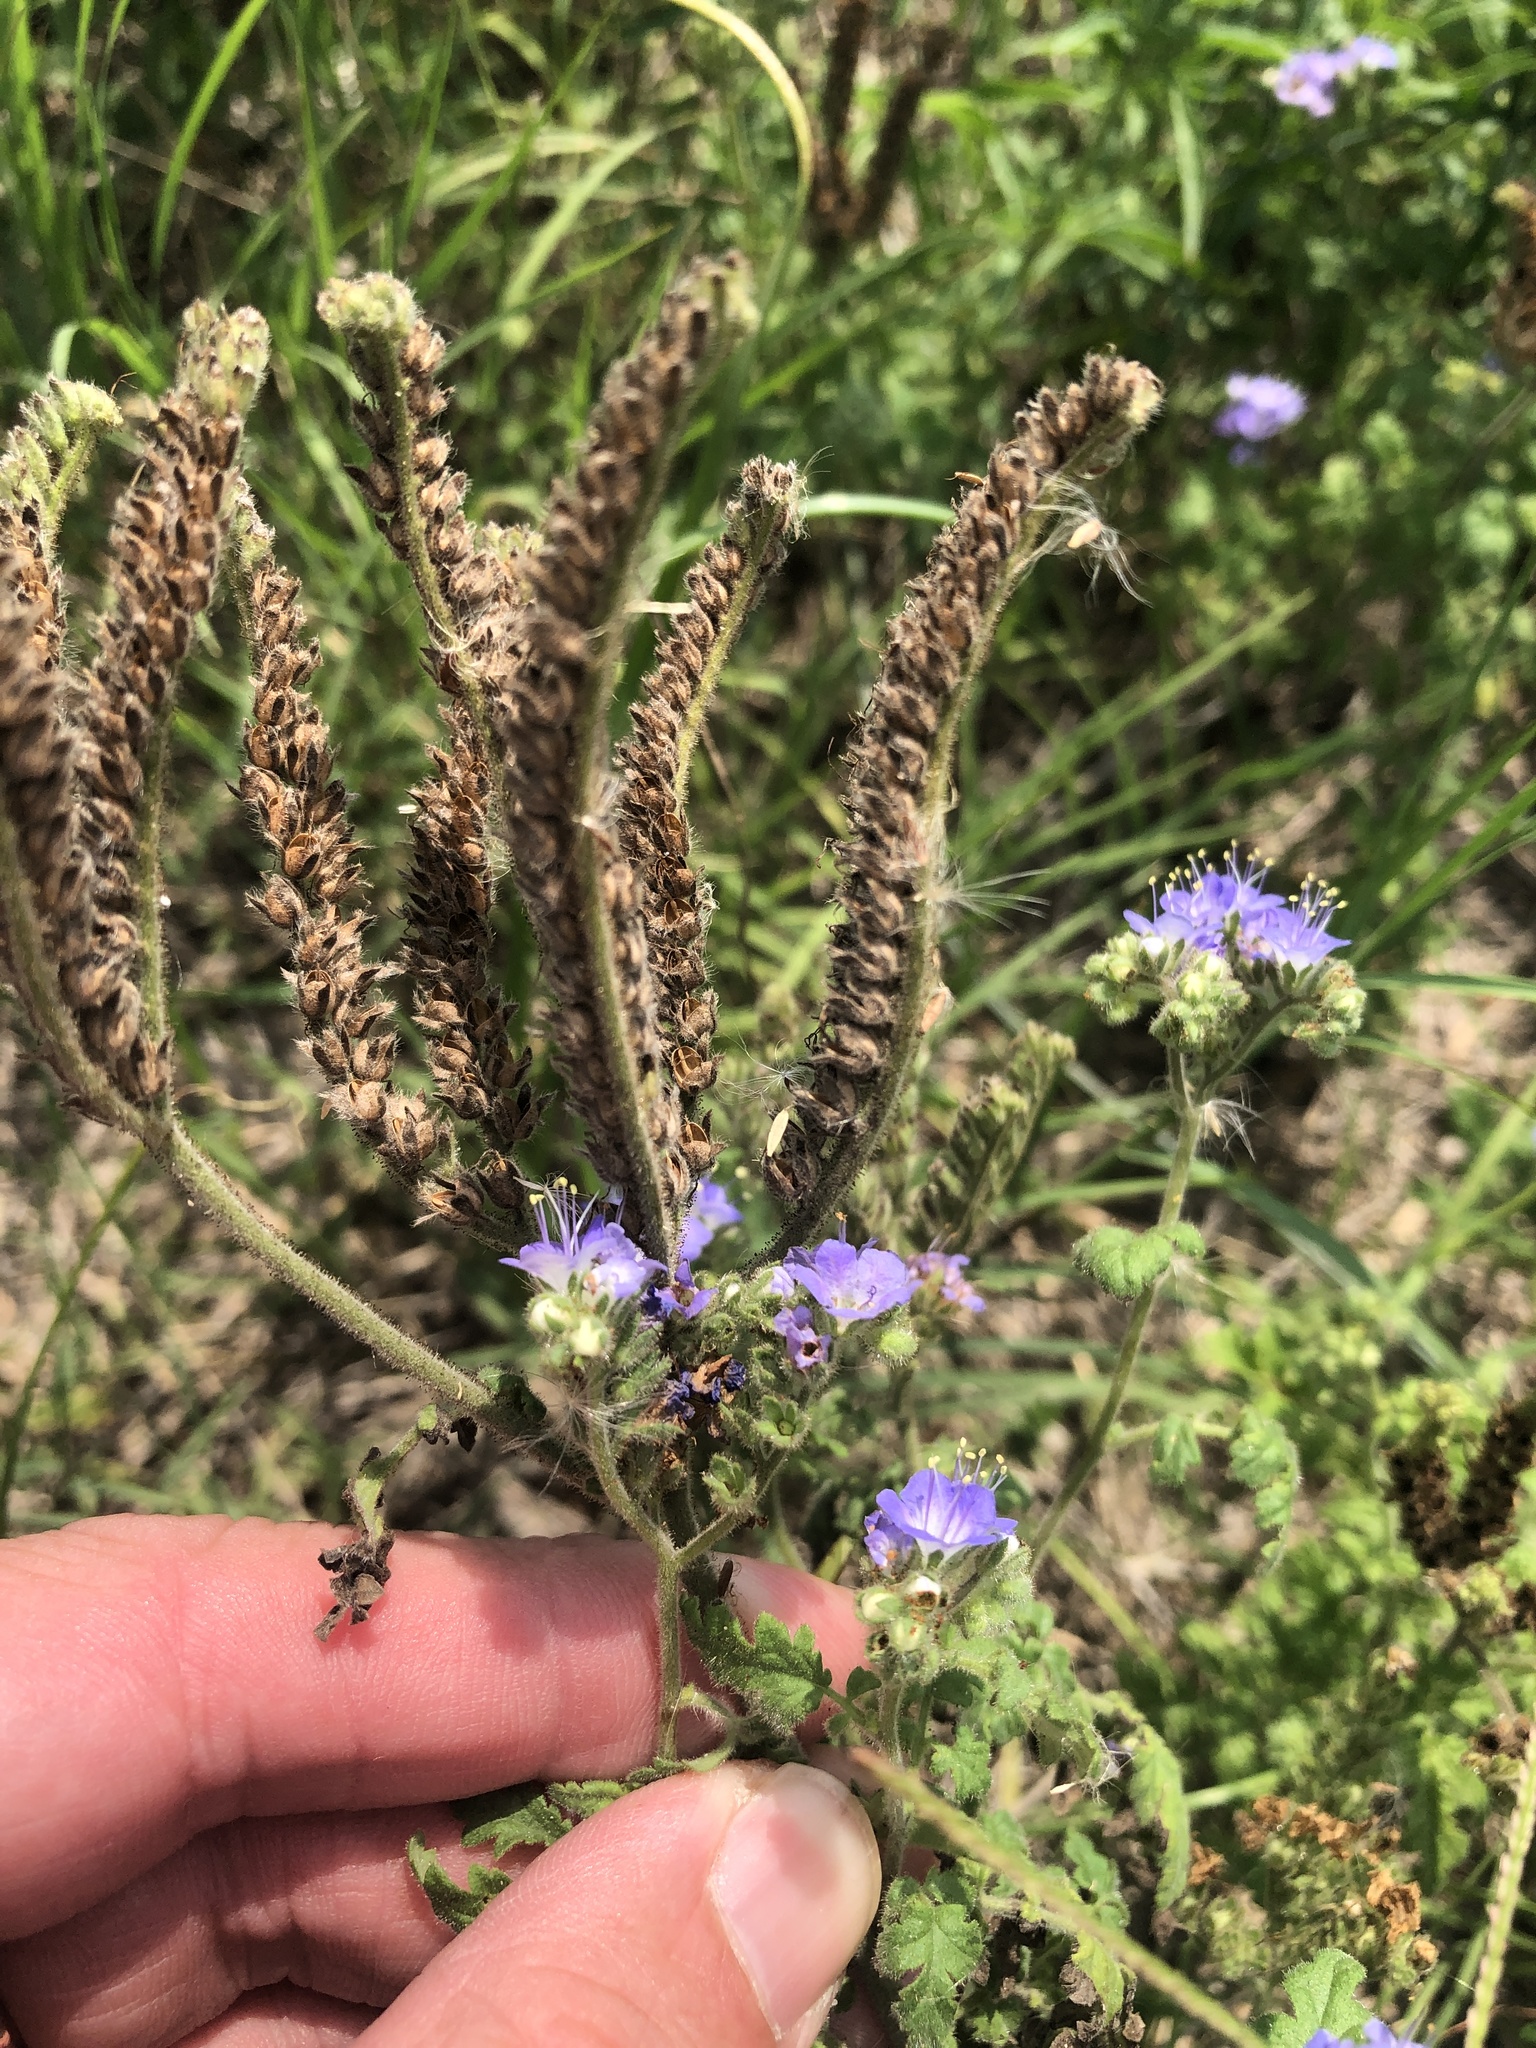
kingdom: Plantae
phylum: Tracheophyta
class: Magnoliopsida
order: Boraginales
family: Hydrophyllaceae
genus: Phacelia
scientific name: Phacelia congesta
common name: Blue curls
